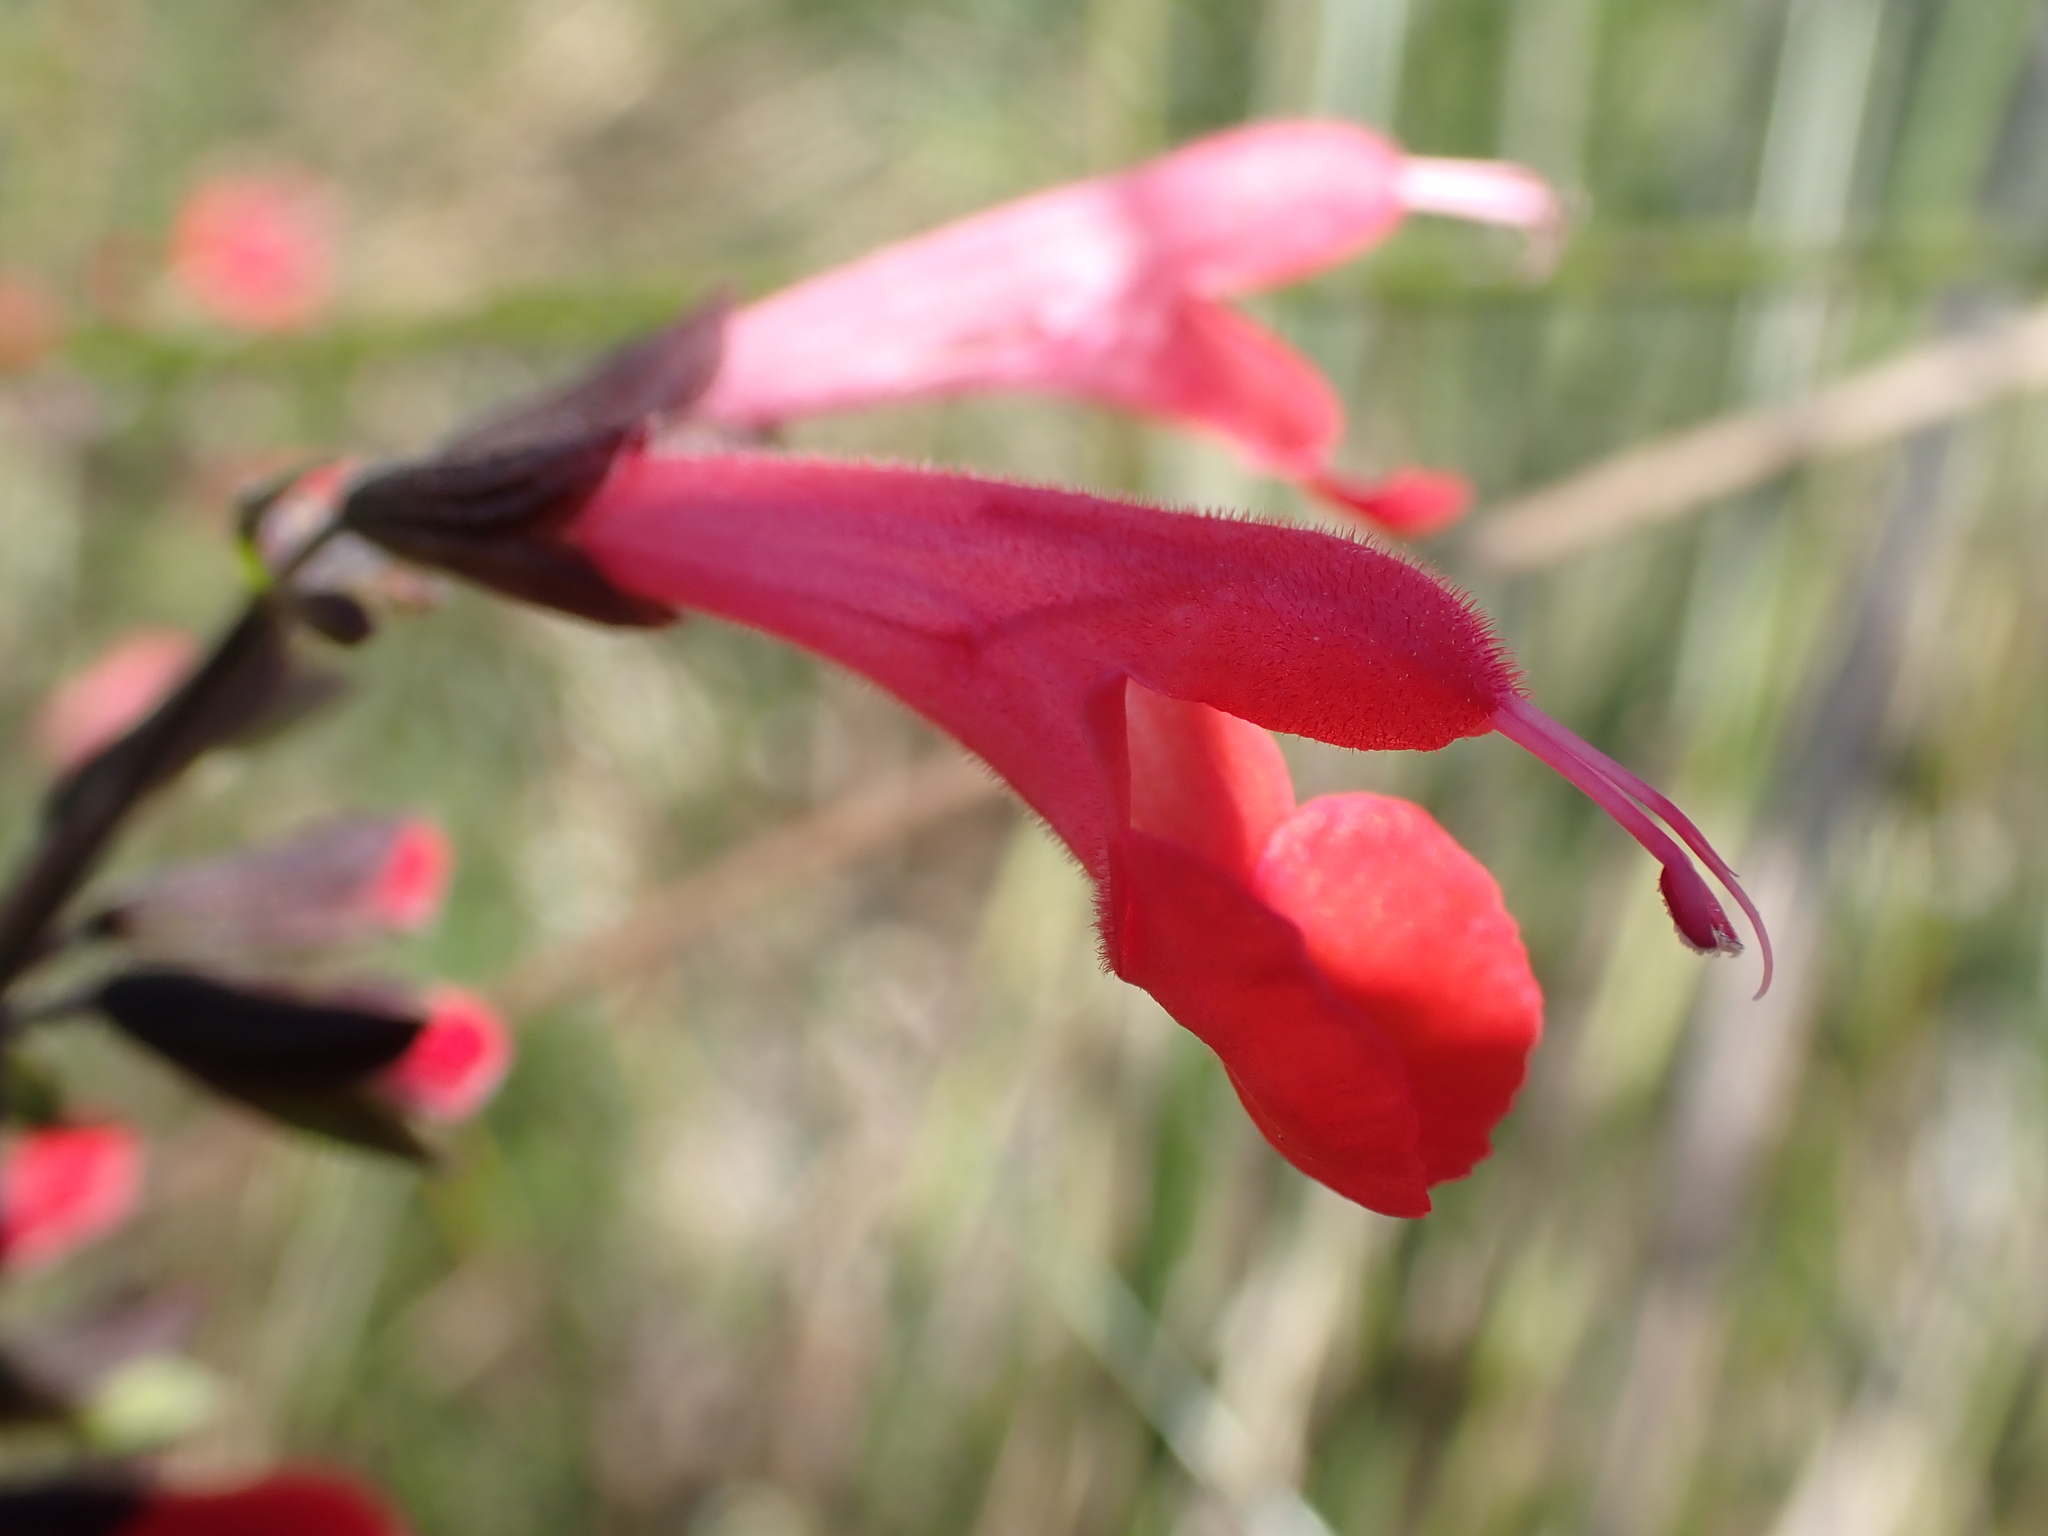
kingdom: Plantae
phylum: Tracheophyta
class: Magnoliopsida
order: Lamiales
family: Lamiaceae
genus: Salvia
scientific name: Salvia coccinea
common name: Blood sage
